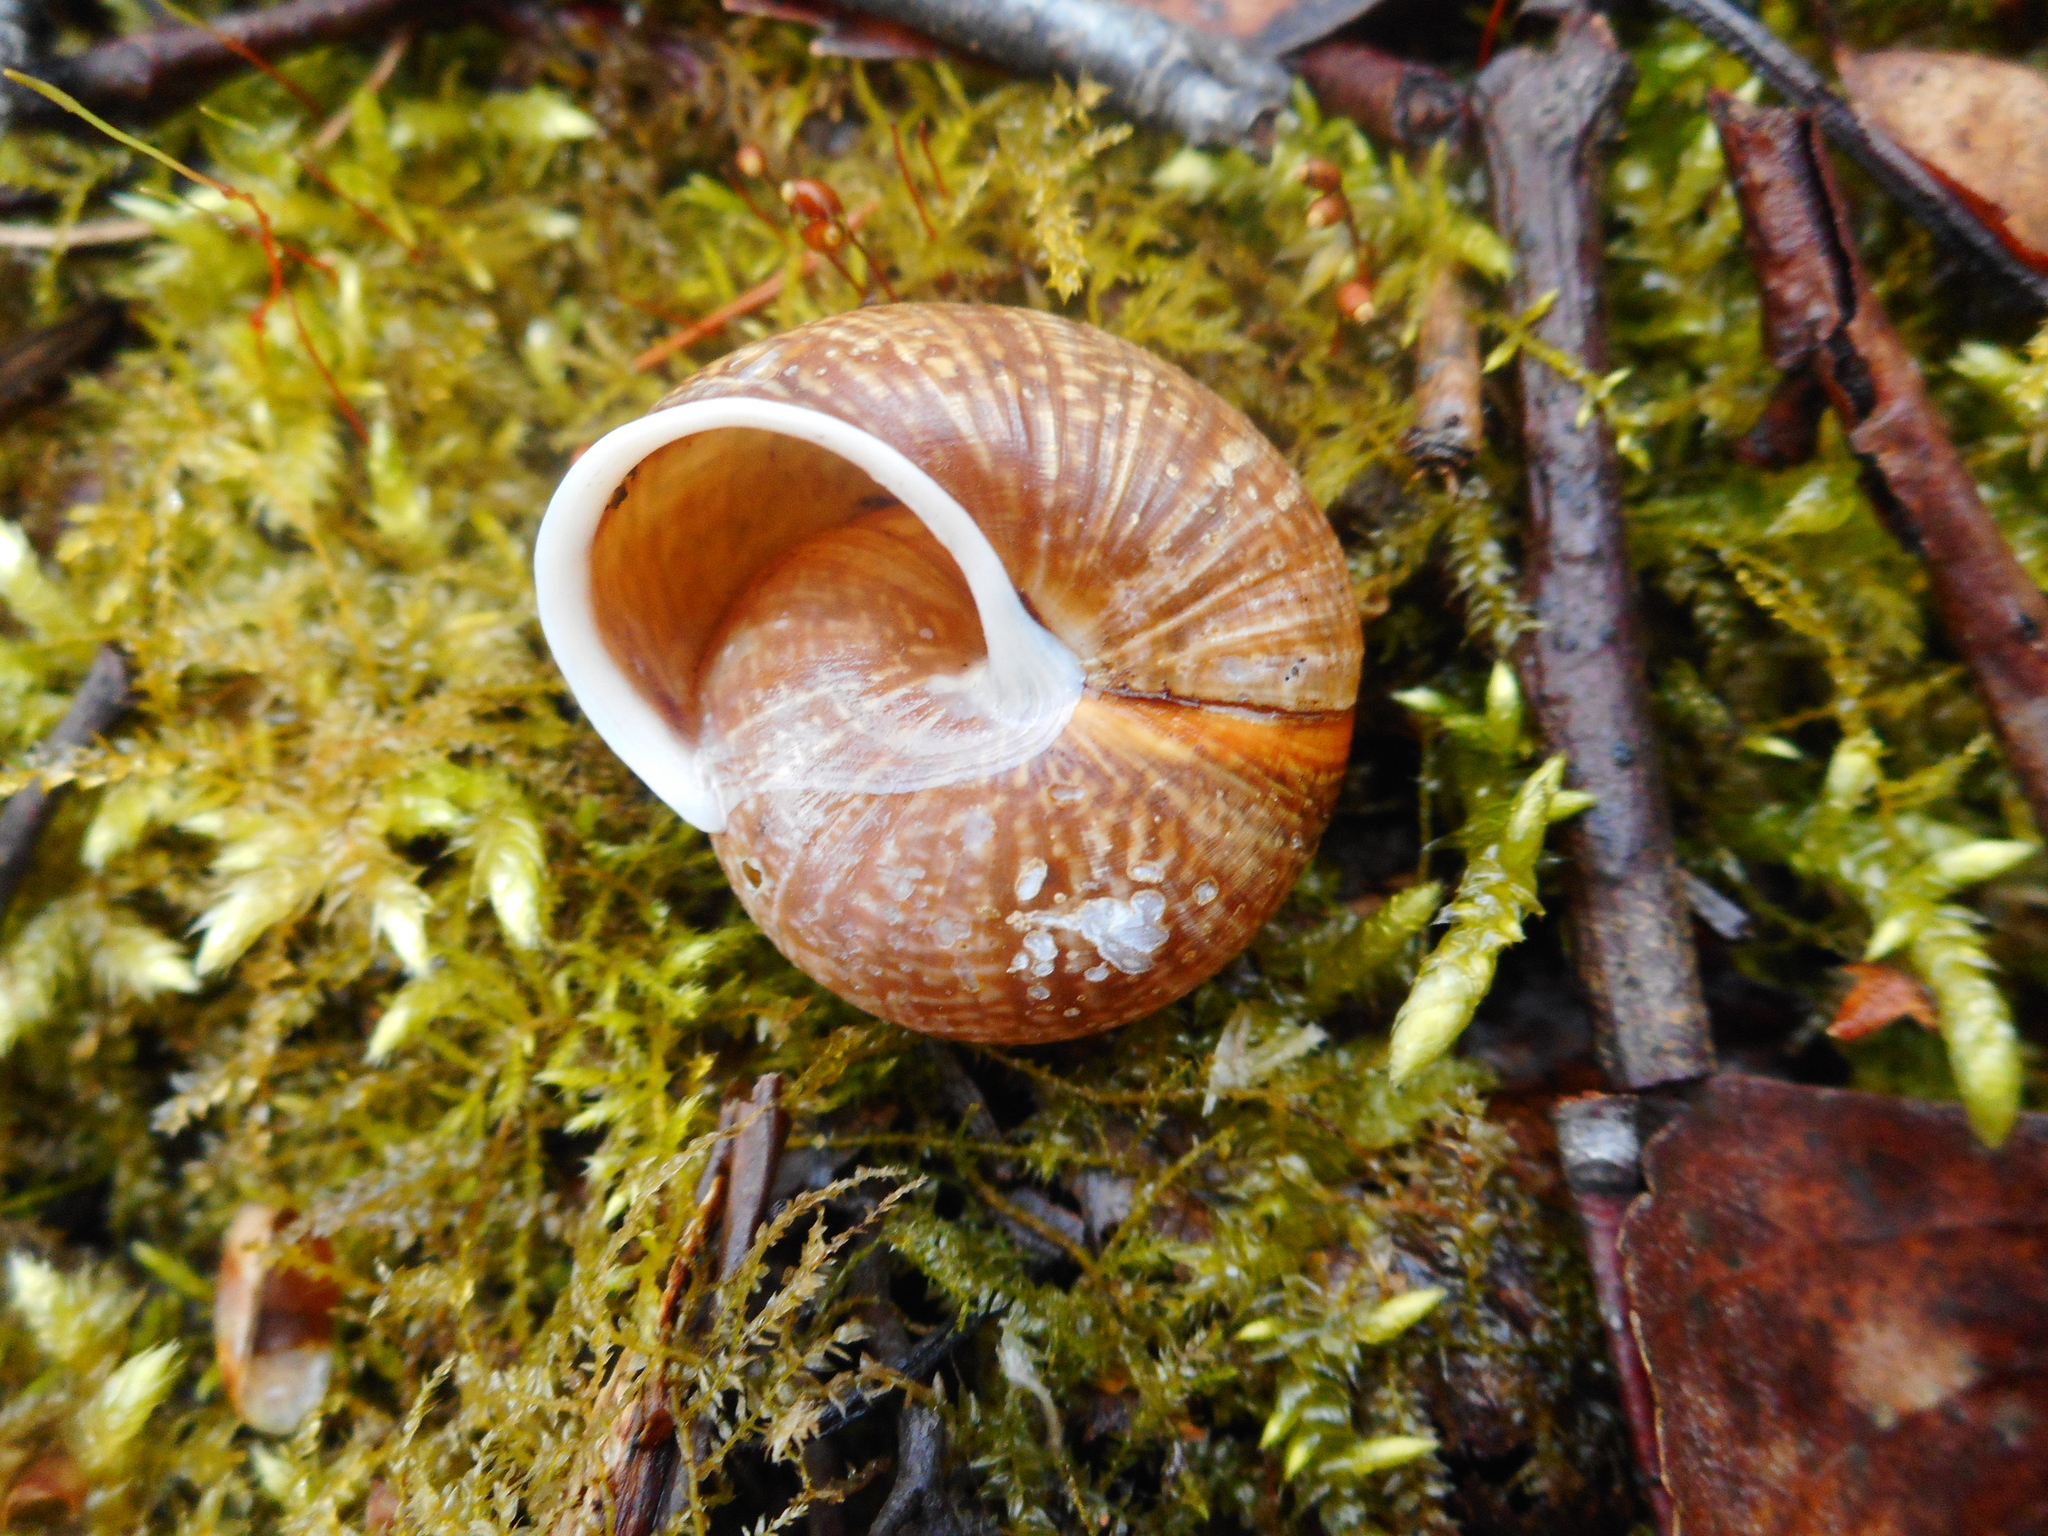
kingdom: Animalia
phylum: Mollusca
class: Gastropoda
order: Stylommatophora
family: Helicidae
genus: Arianta
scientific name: Arianta arbustorum
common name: Copse snail
